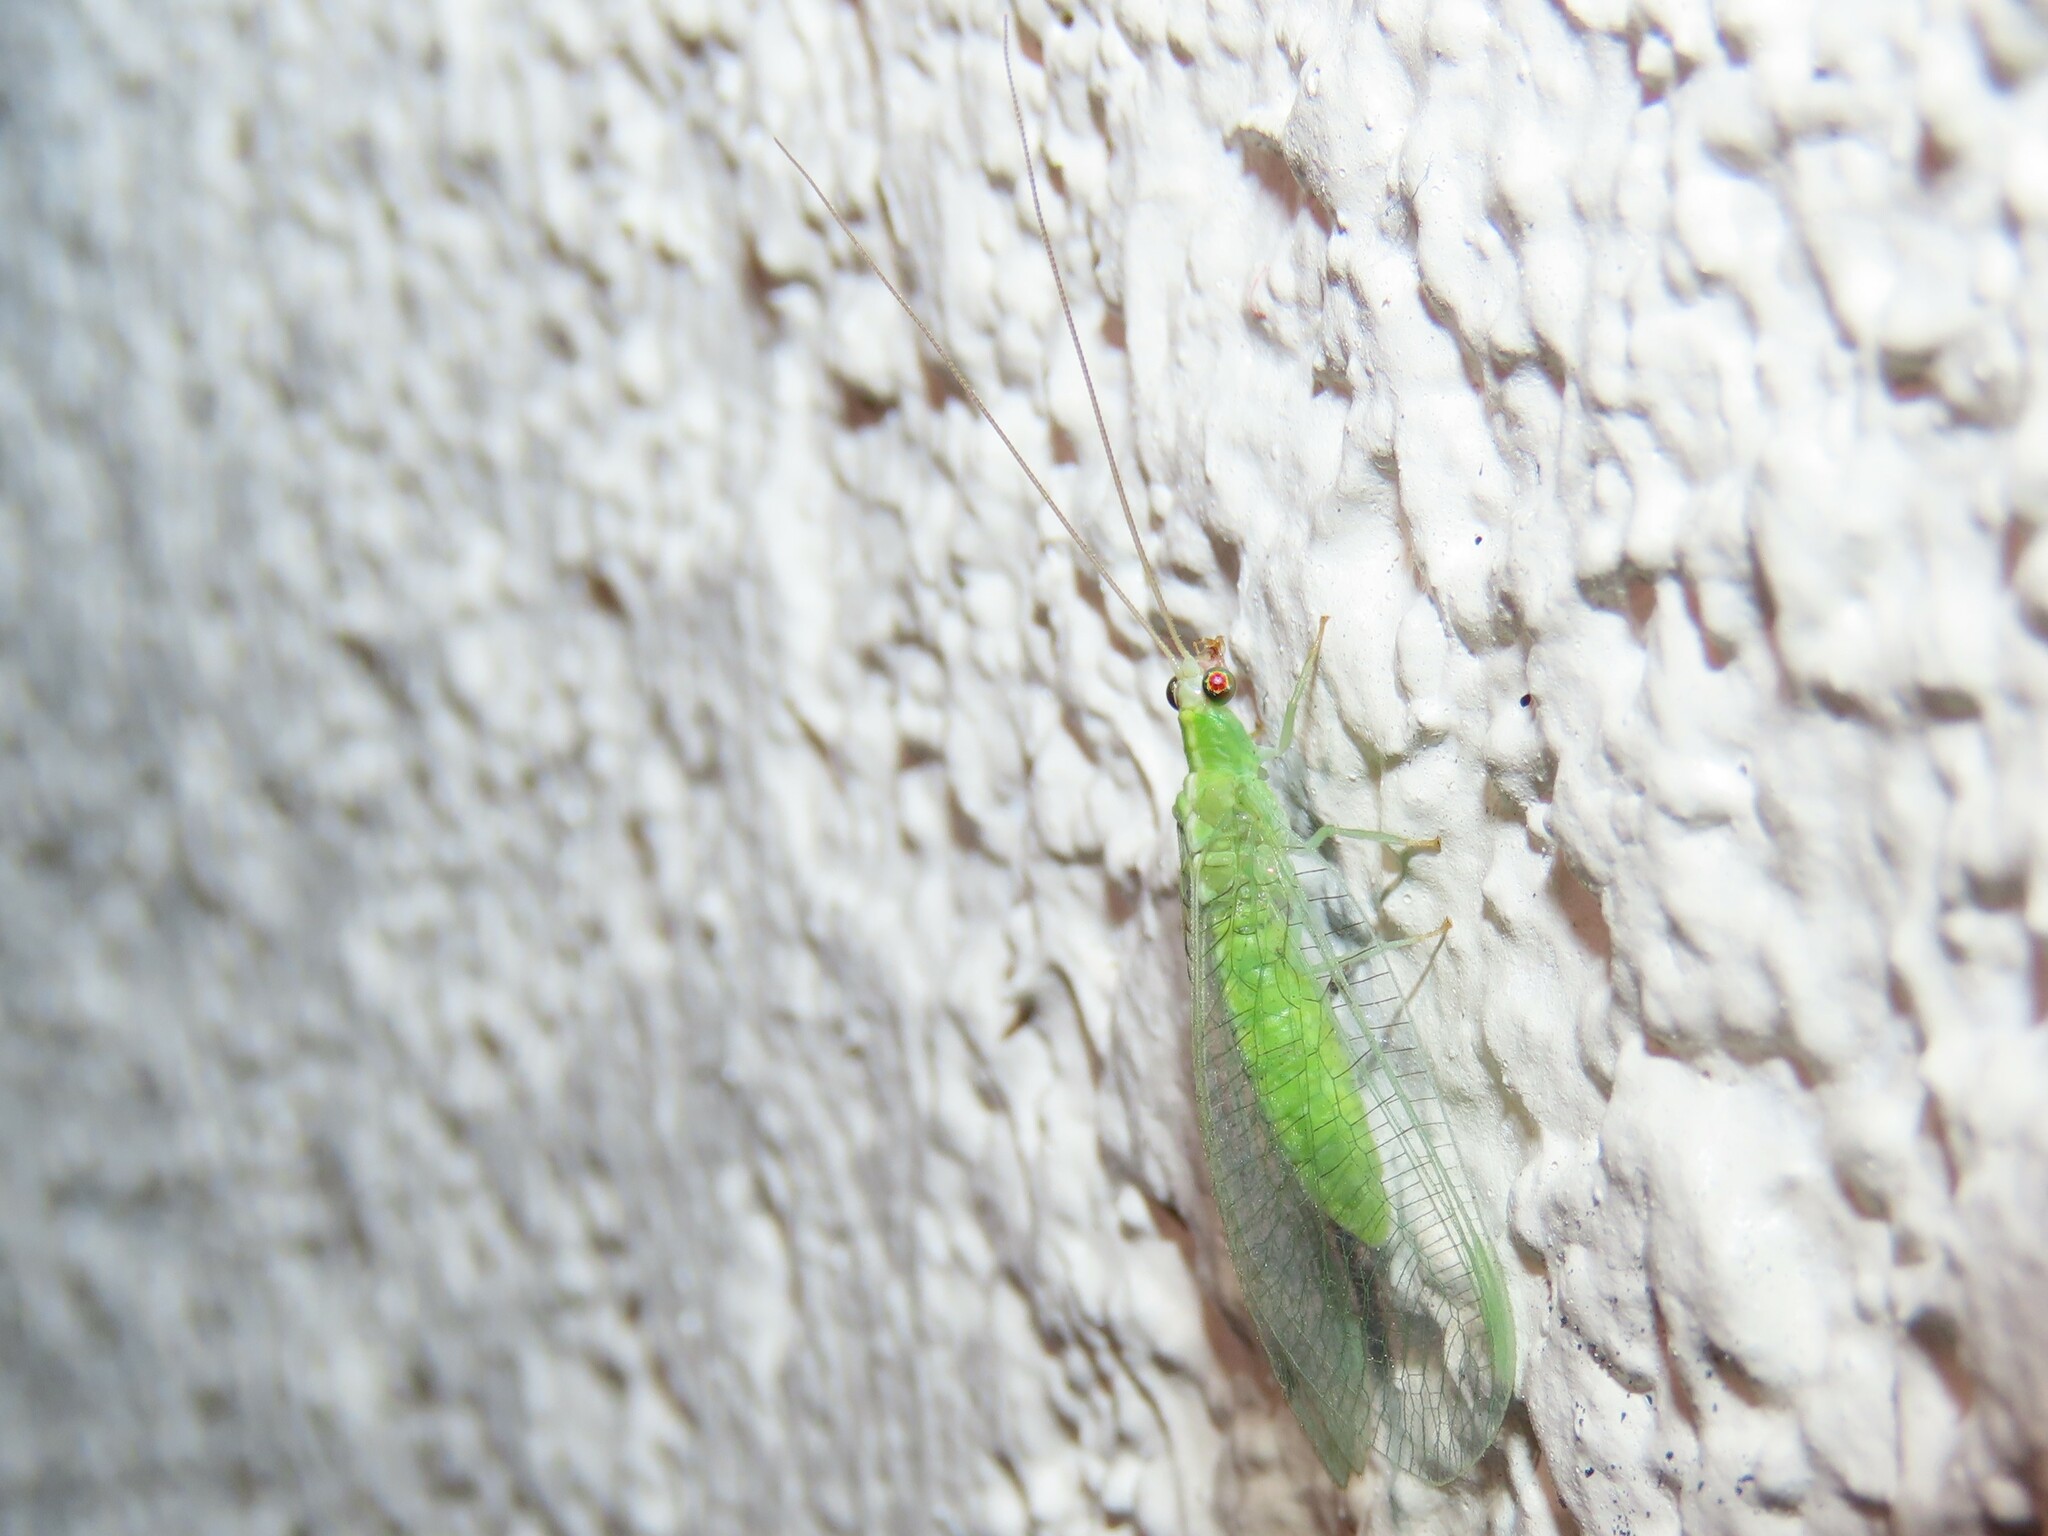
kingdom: Animalia
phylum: Arthropoda
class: Insecta
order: Neuroptera
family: Chrysopidae
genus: Chrysopodes
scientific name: Chrysopodes collaris
